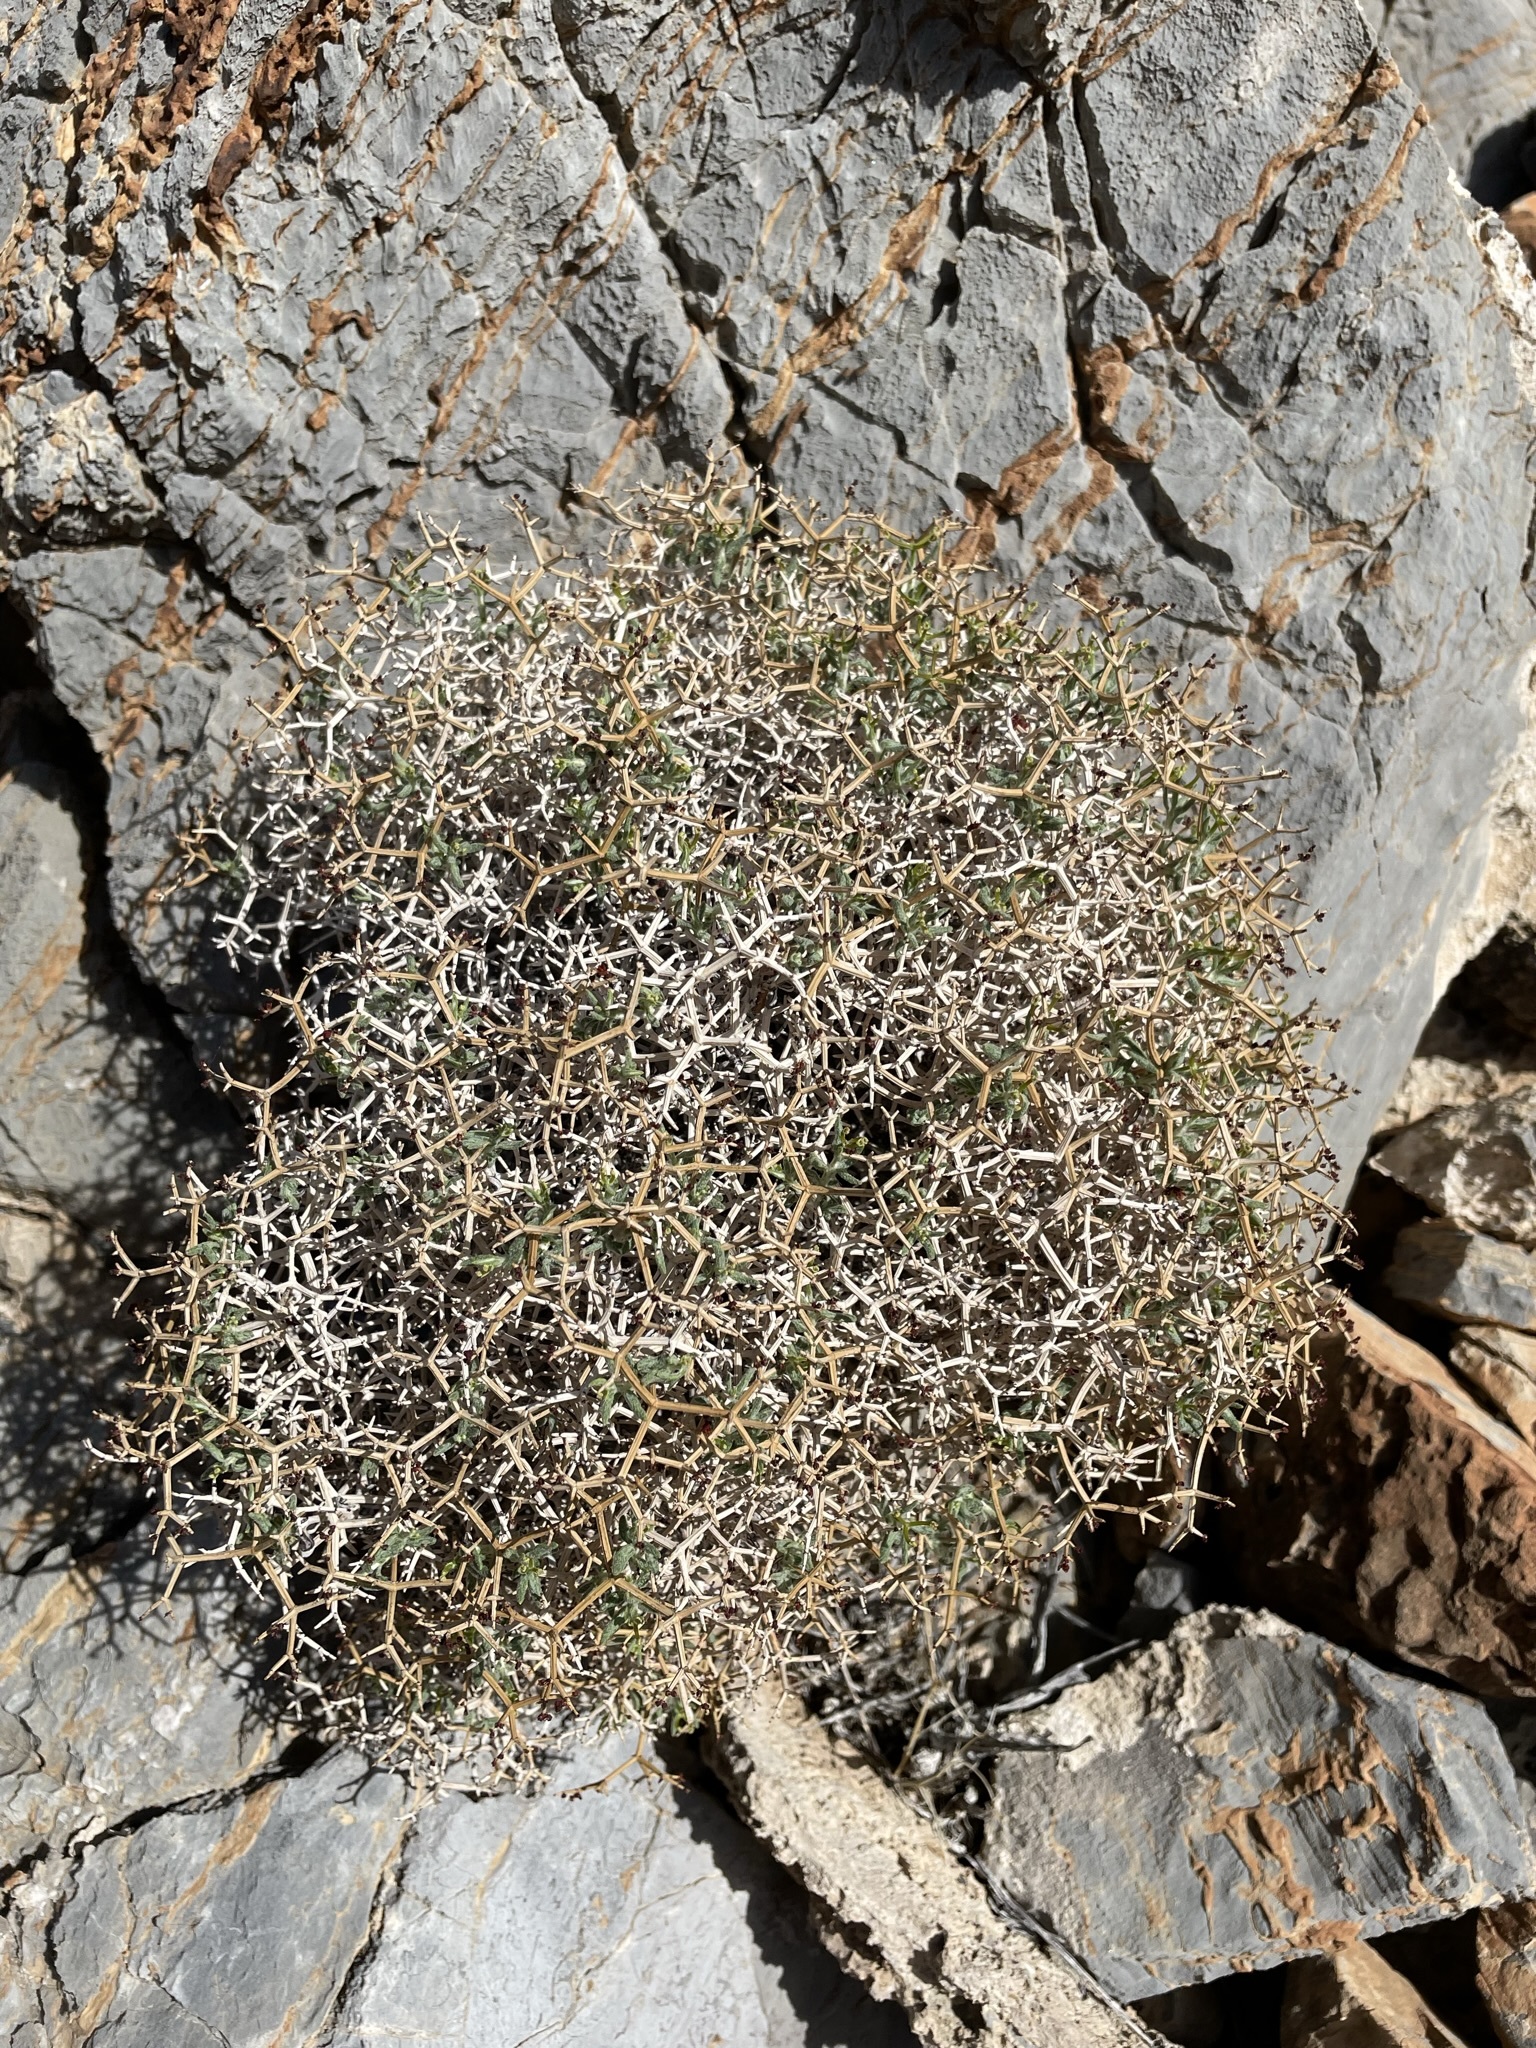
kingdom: Plantae
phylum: Tracheophyta
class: Magnoliopsida
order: Caryophyllales
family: Polygonaceae
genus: Eriogonum
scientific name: Eriogonum heermannii
